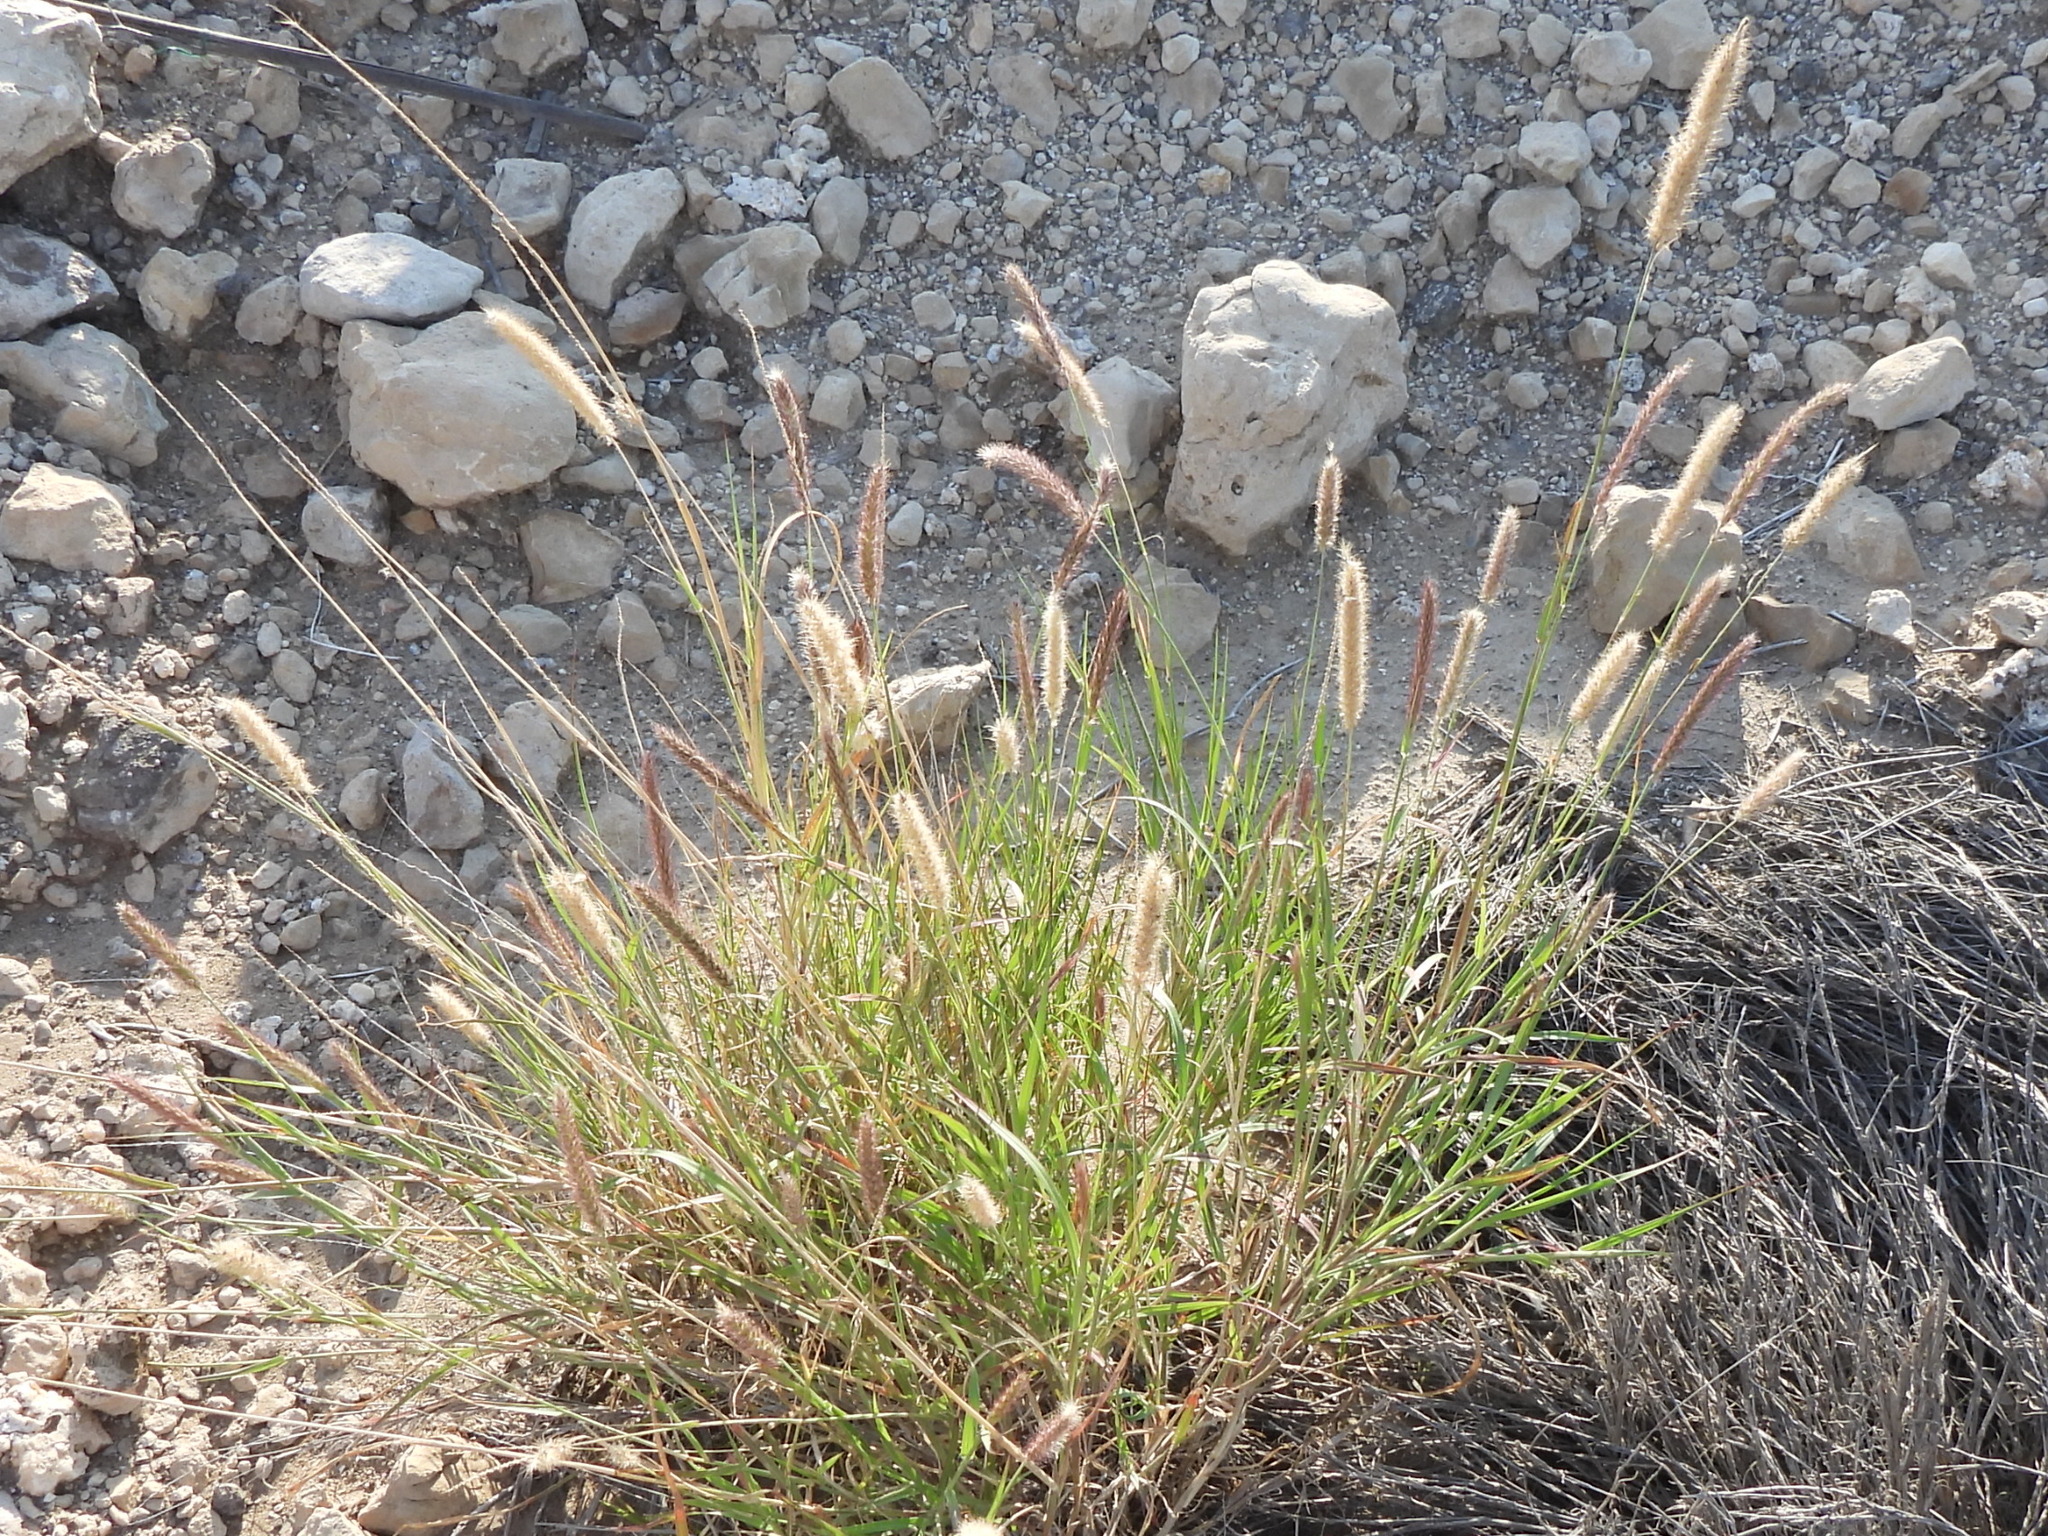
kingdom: Plantae
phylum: Tracheophyta
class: Liliopsida
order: Poales
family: Poaceae
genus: Cenchrus
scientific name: Cenchrus ciliaris
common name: Buffelgrass
